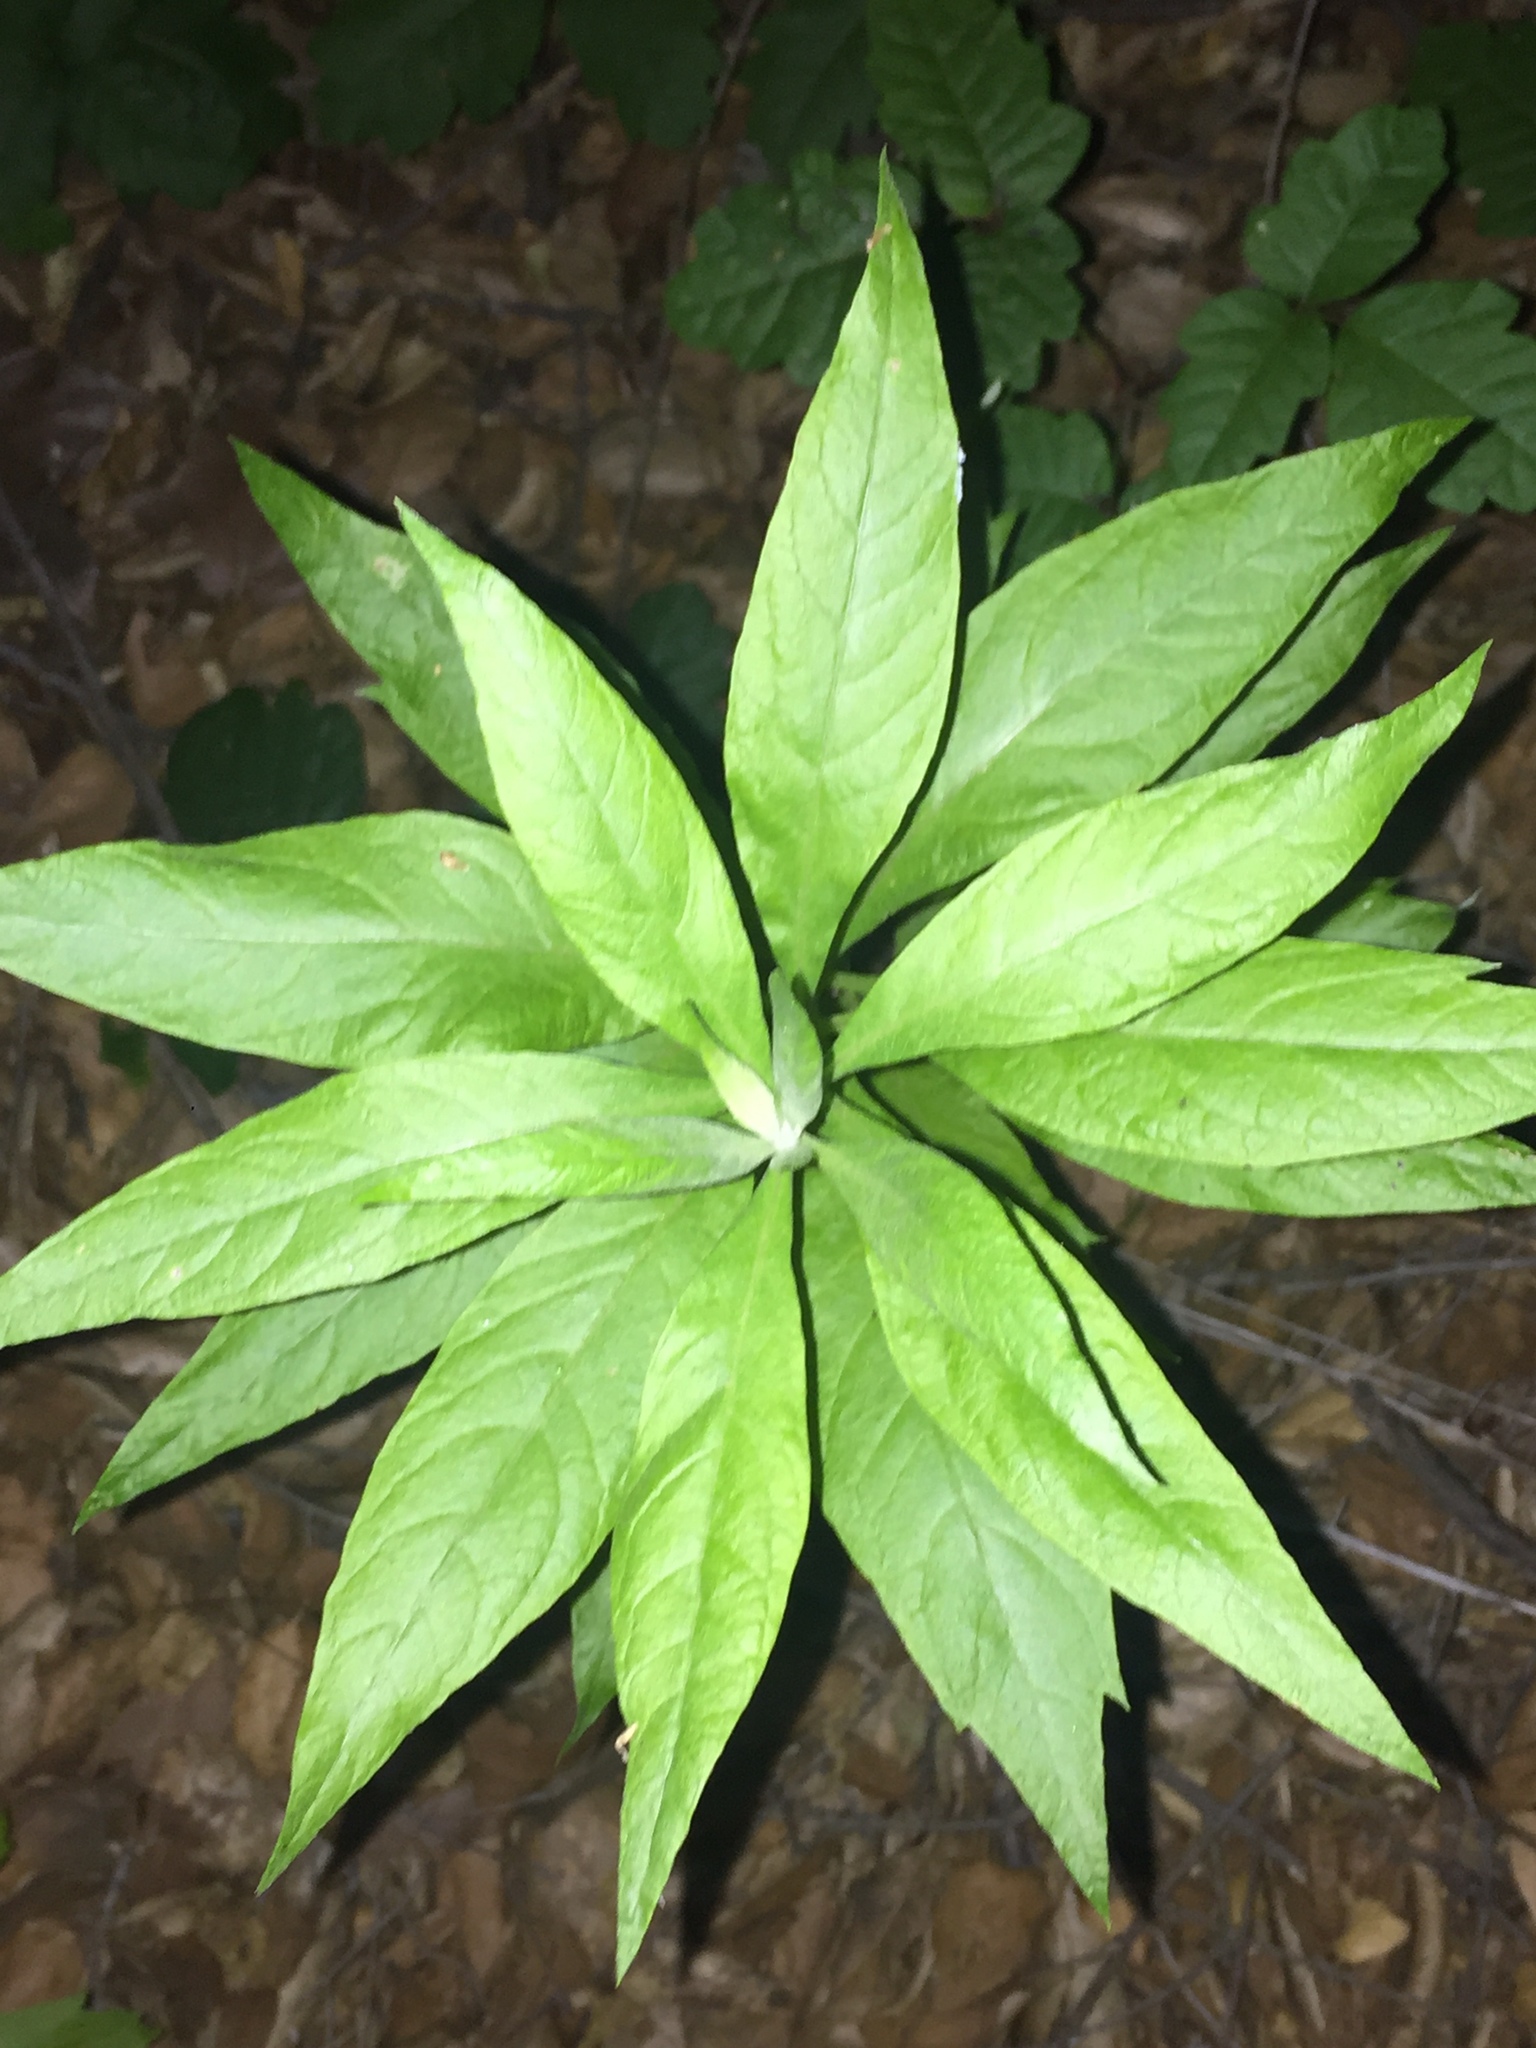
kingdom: Plantae
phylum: Tracheophyta
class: Magnoliopsida
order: Asterales
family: Asteraceae
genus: Artemisia
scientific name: Artemisia douglasiana
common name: Northwest mugwort
